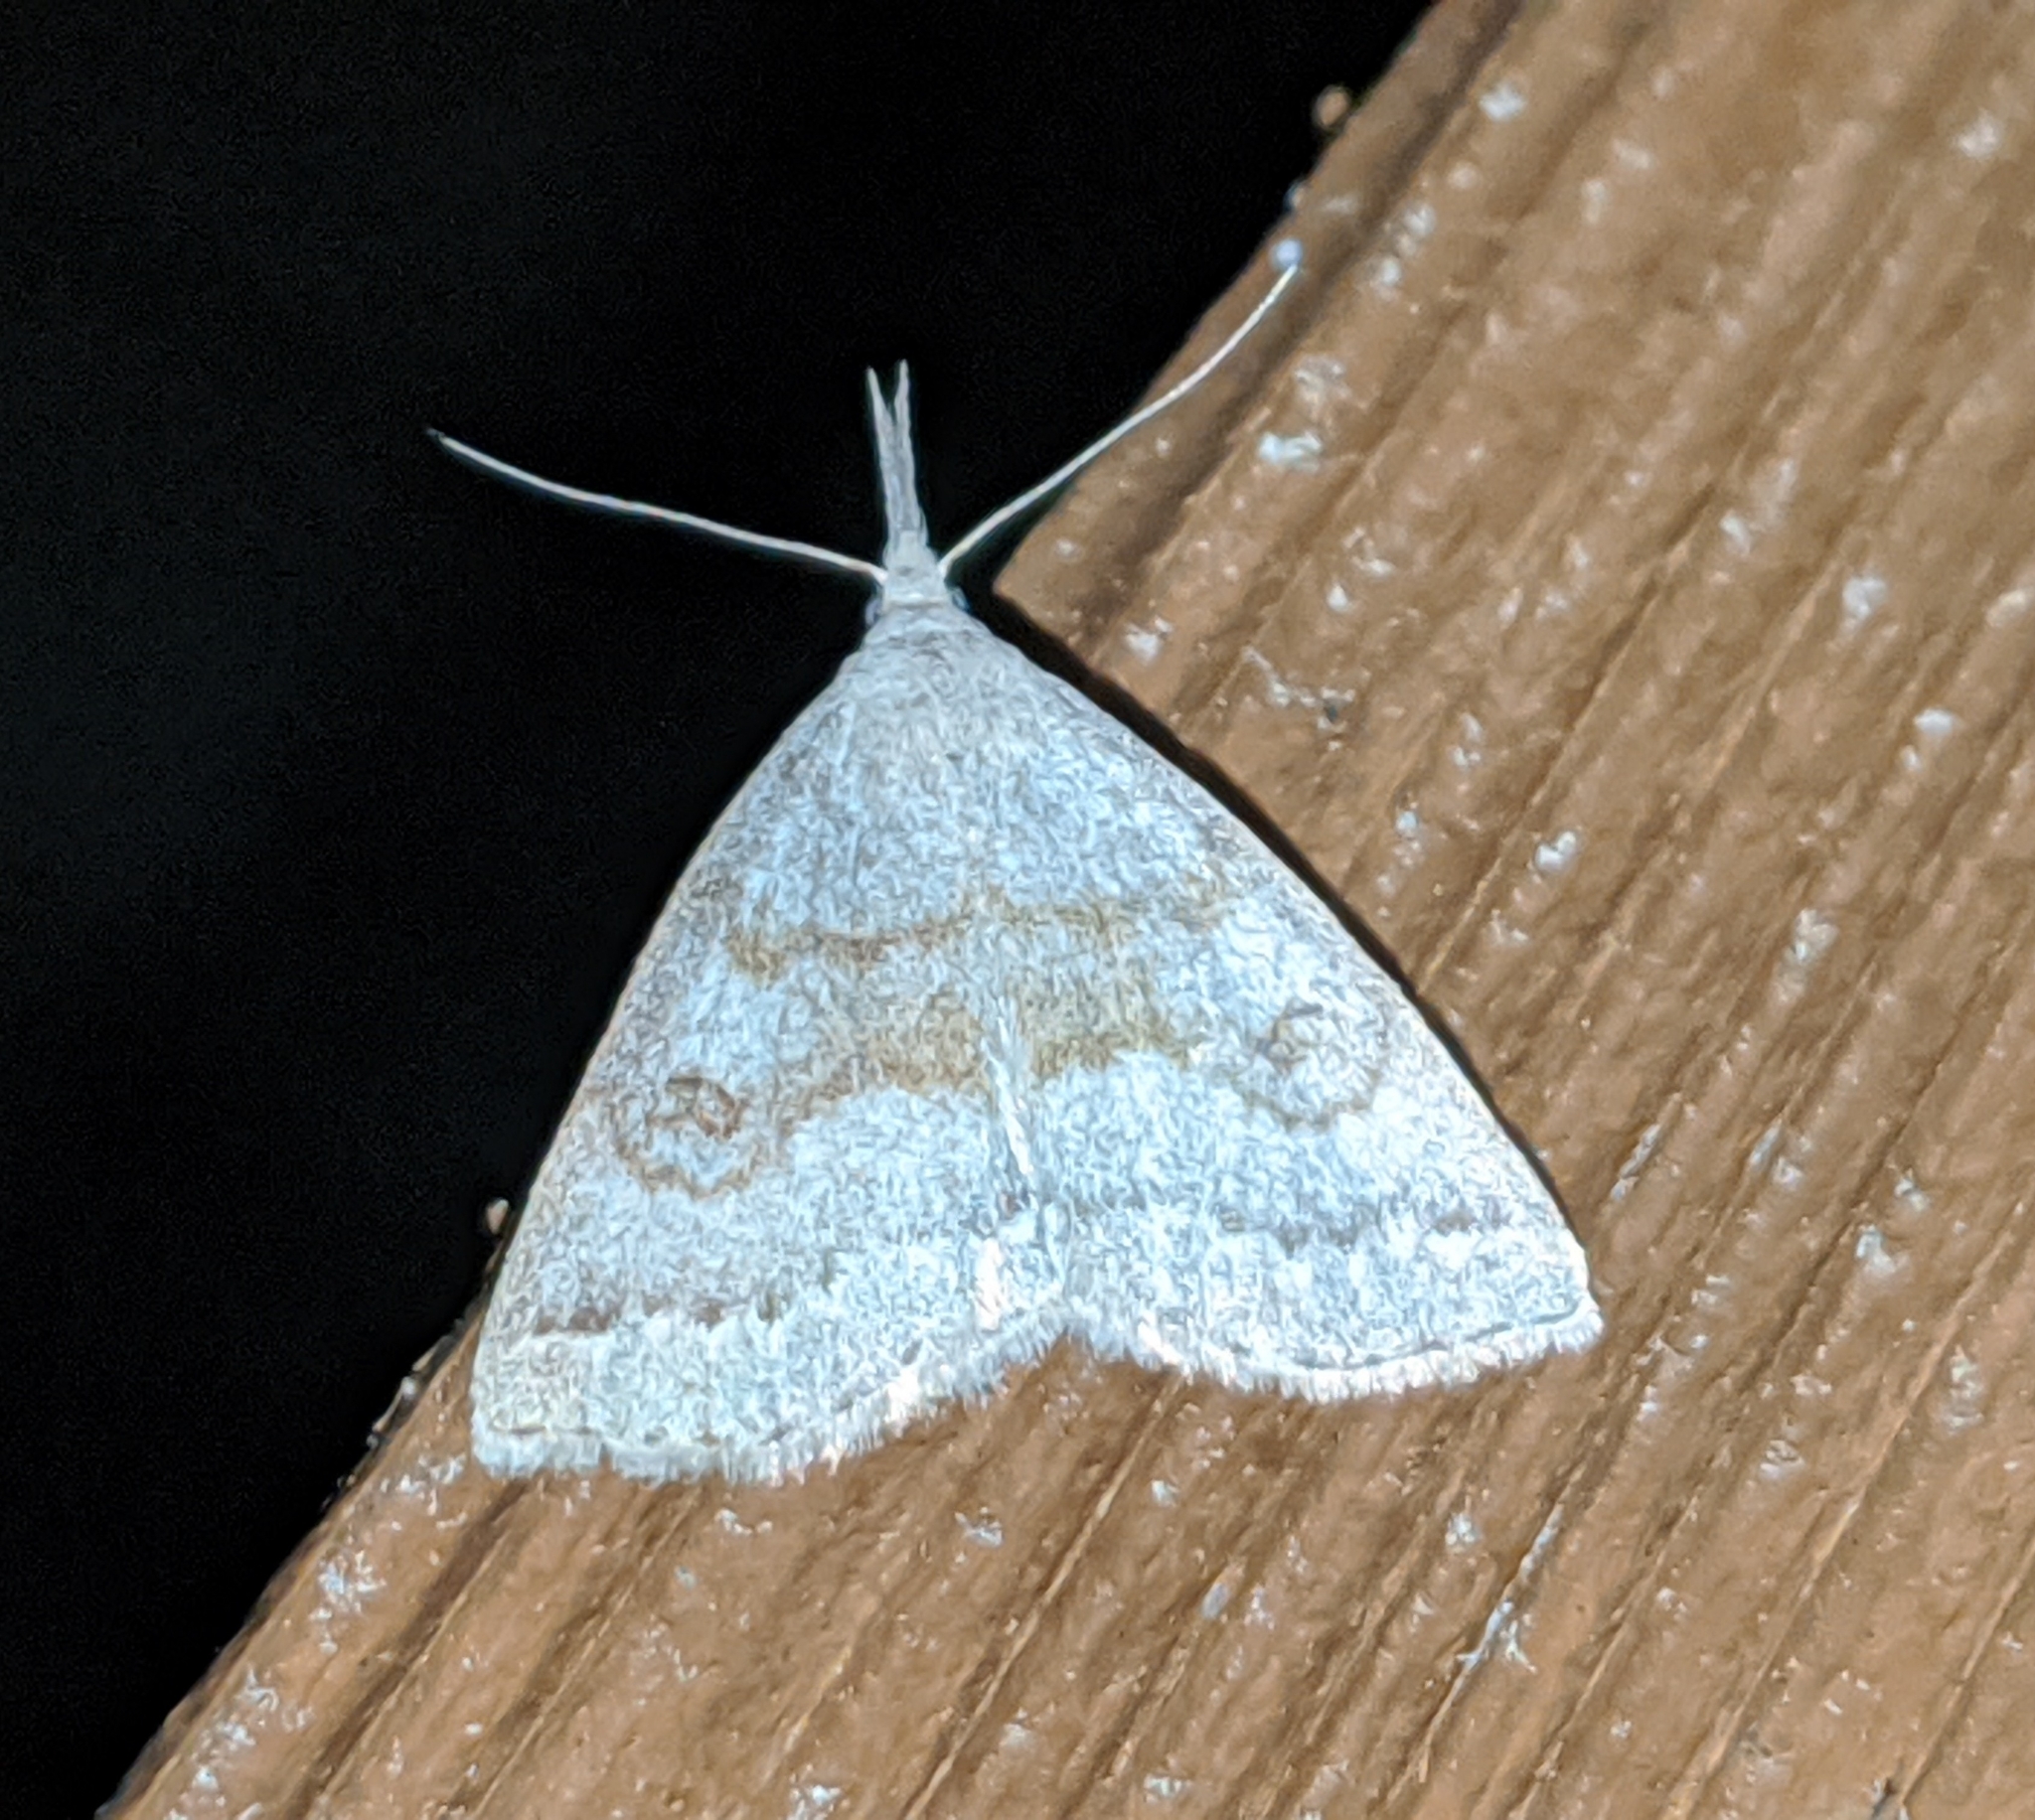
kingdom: Animalia
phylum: Arthropoda
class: Insecta
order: Lepidoptera
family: Erebidae
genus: Macrochilo
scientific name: Macrochilo morbidalis
